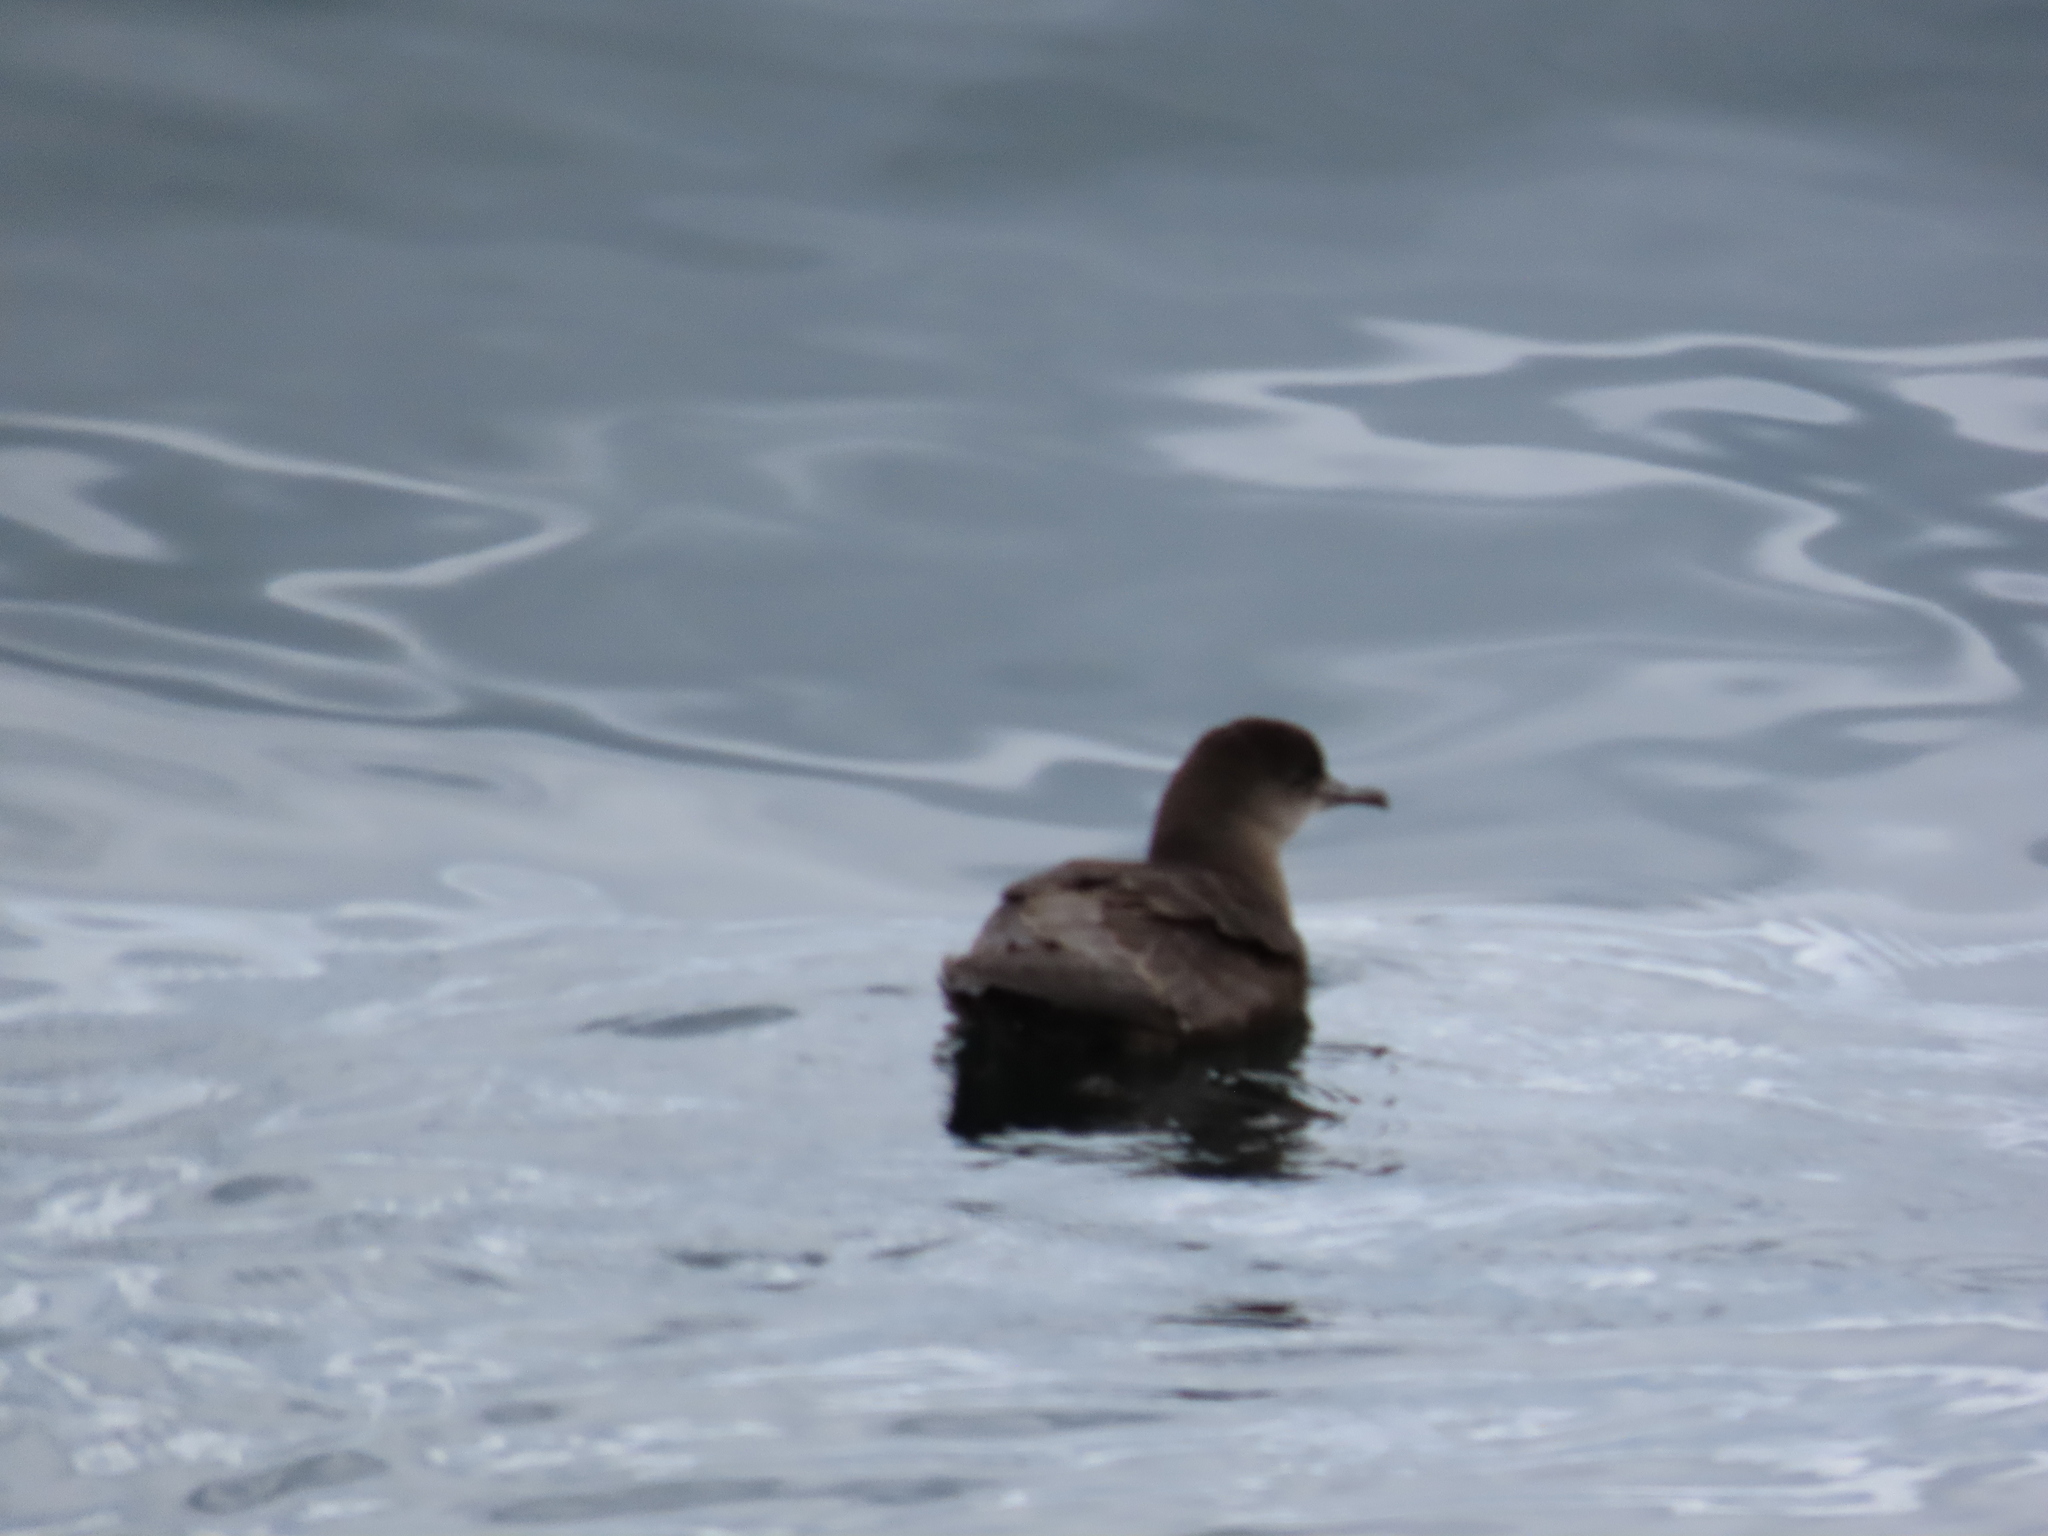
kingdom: Animalia
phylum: Chordata
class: Aves
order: Procellariiformes
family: Procellariidae
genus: Puffinus
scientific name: Puffinus griseus
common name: Sooty shearwater
